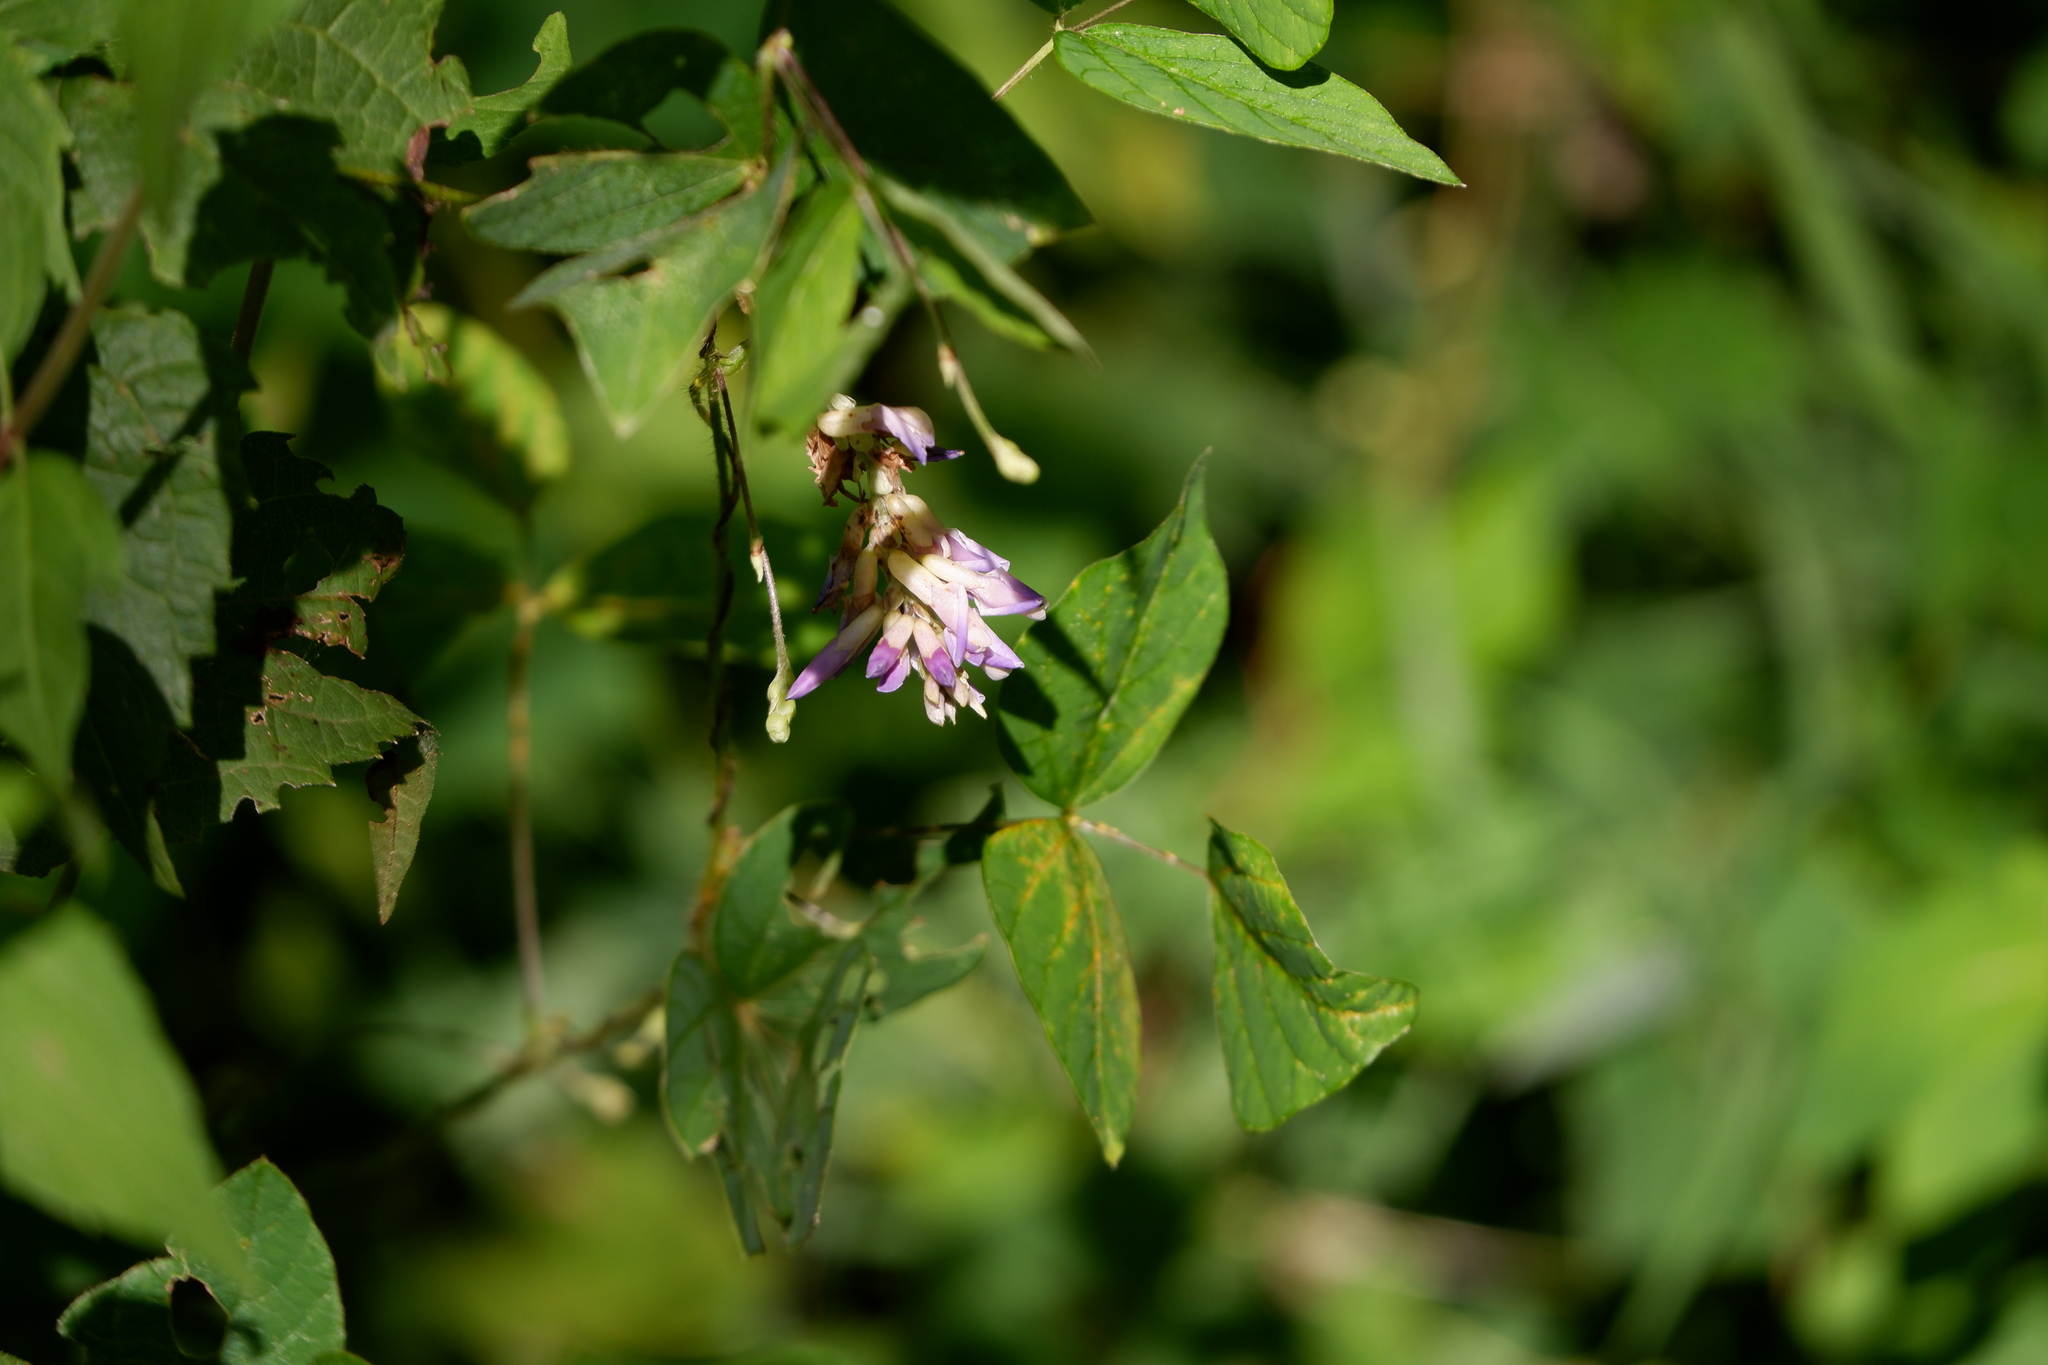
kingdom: Fungi
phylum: Chytridiomycota
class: Chytridiomycetes
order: Chytridiales
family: Synchytriaceae
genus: Miyabella
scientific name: Miyabella aecidioides
